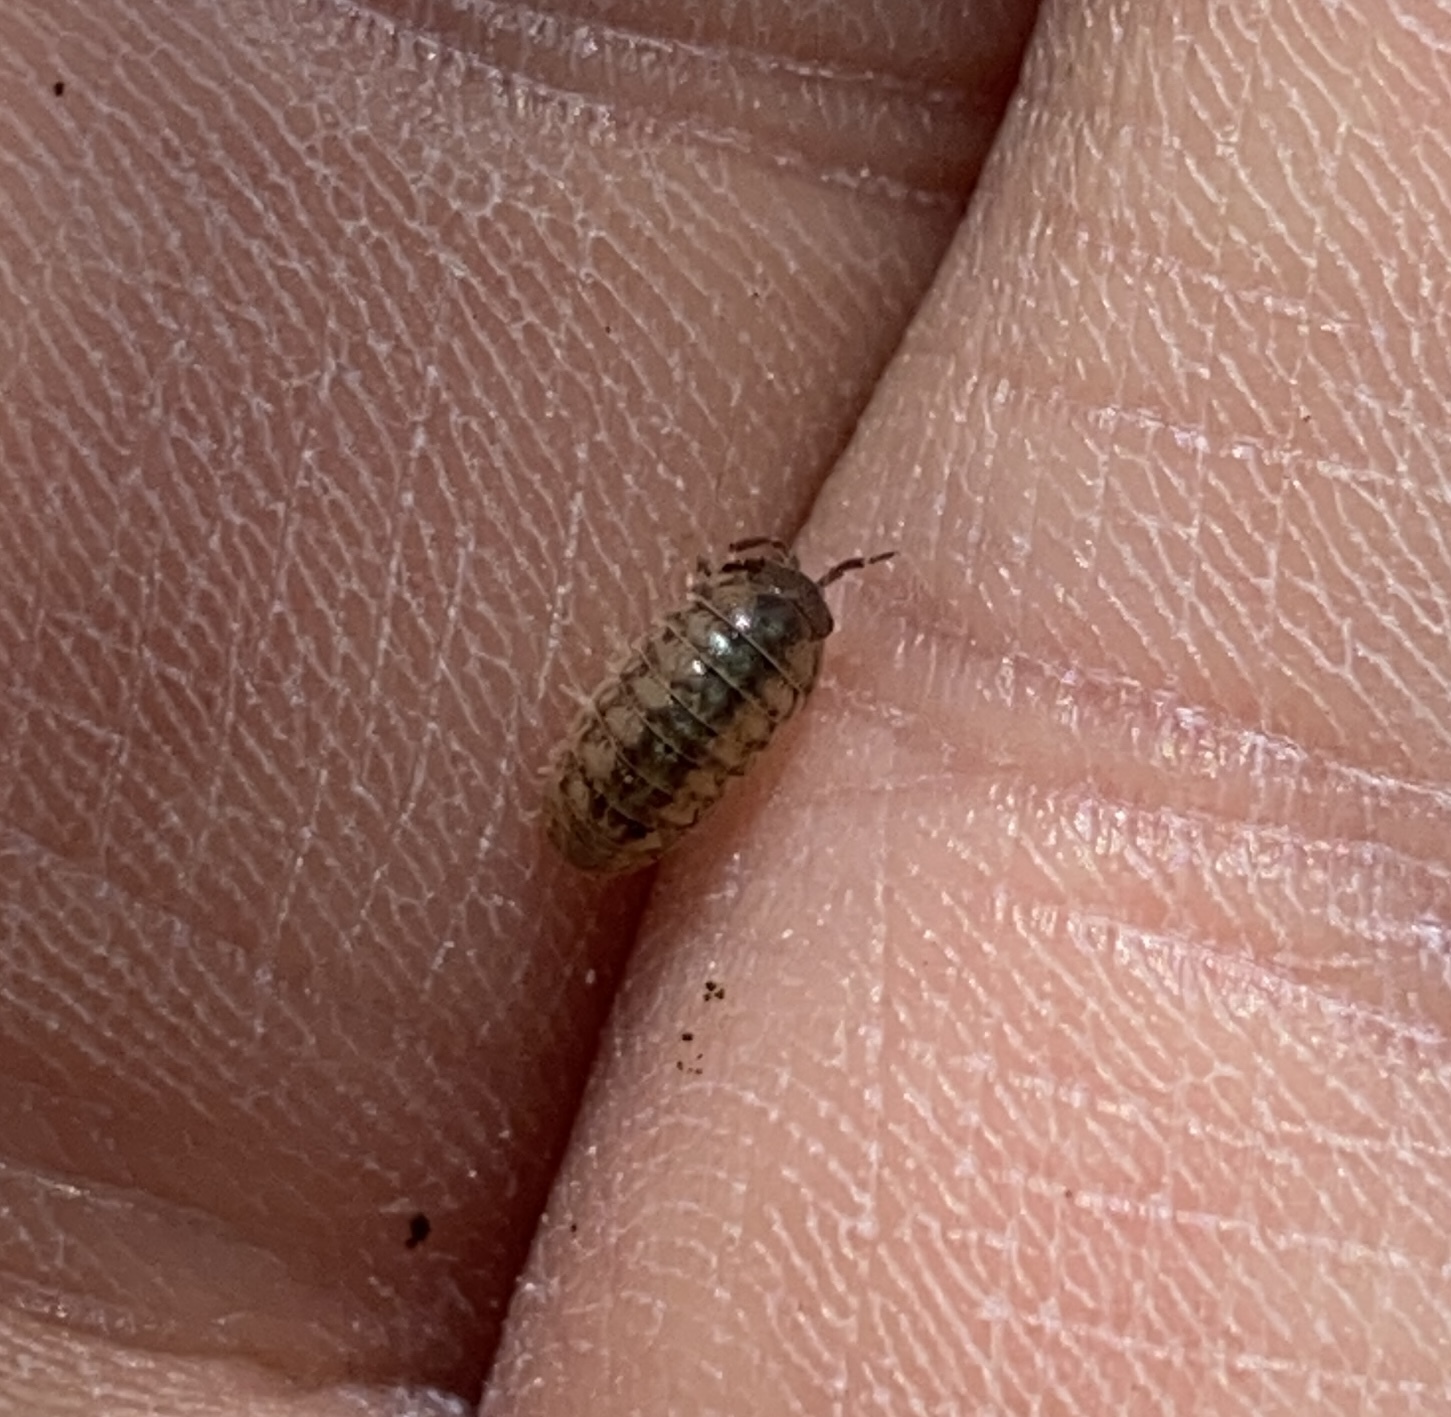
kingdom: Animalia
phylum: Arthropoda
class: Malacostraca
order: Isopoda
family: Armadillidiidae
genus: Armadillidium
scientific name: Armadillidium vulgare
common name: Common pill woodlouse
